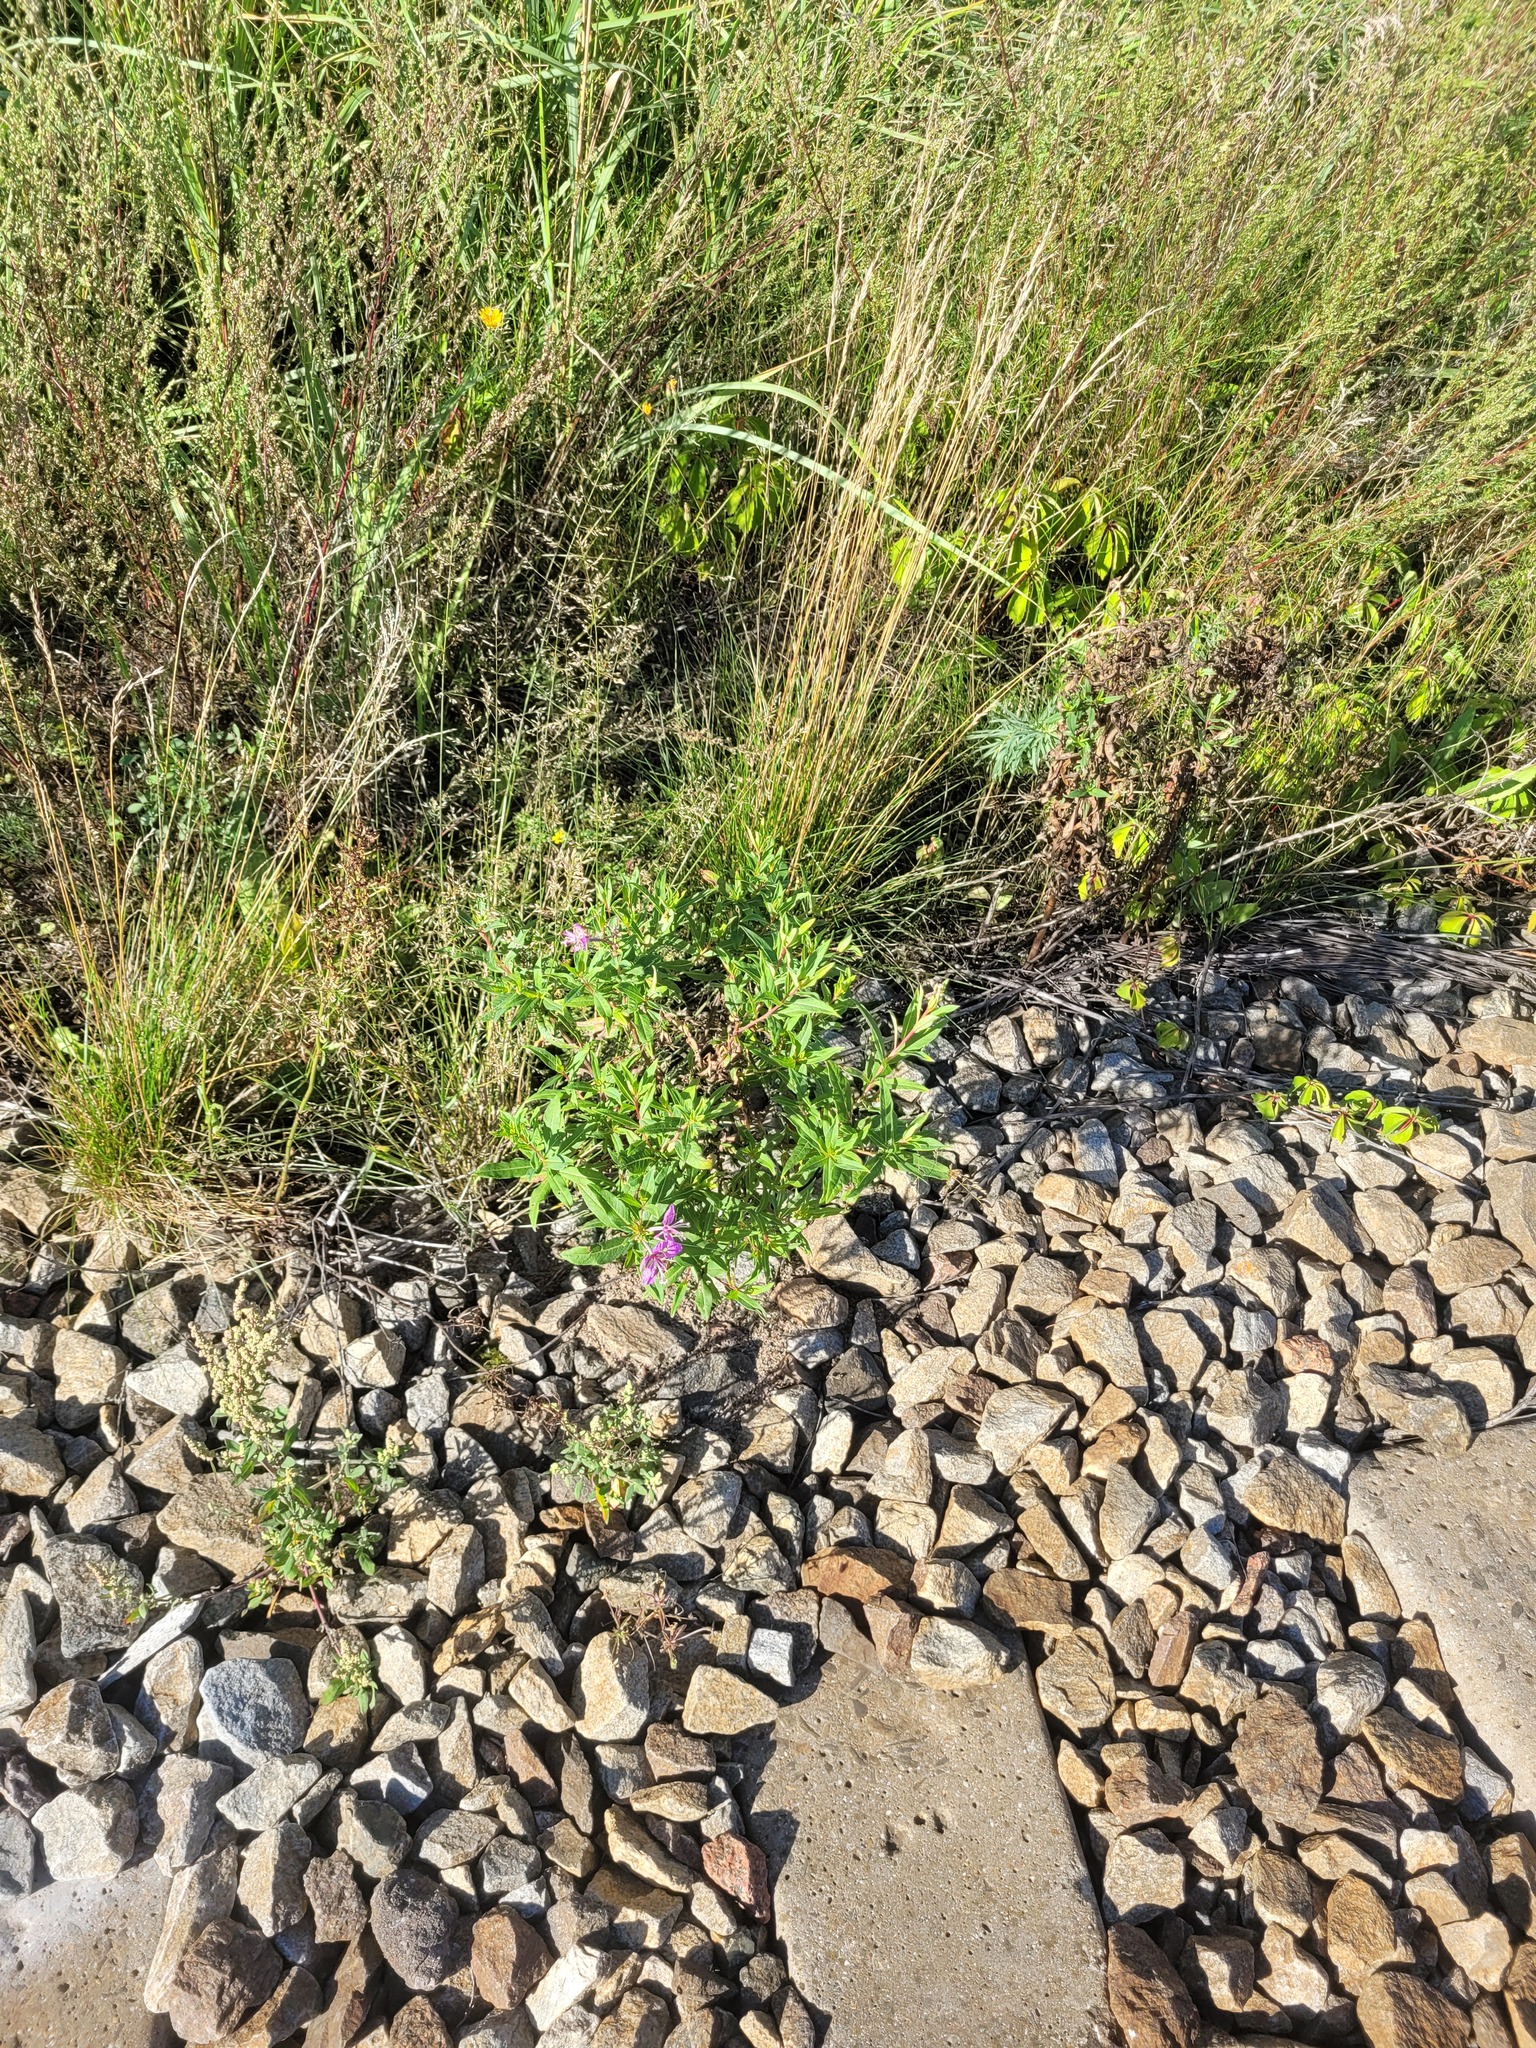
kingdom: Plantae
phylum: Tracheophyta
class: Magnoliopsida
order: Myrtales
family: Onagraceae
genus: Chamaenerion
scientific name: Chamaenerion angustifolium
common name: Fireweed
